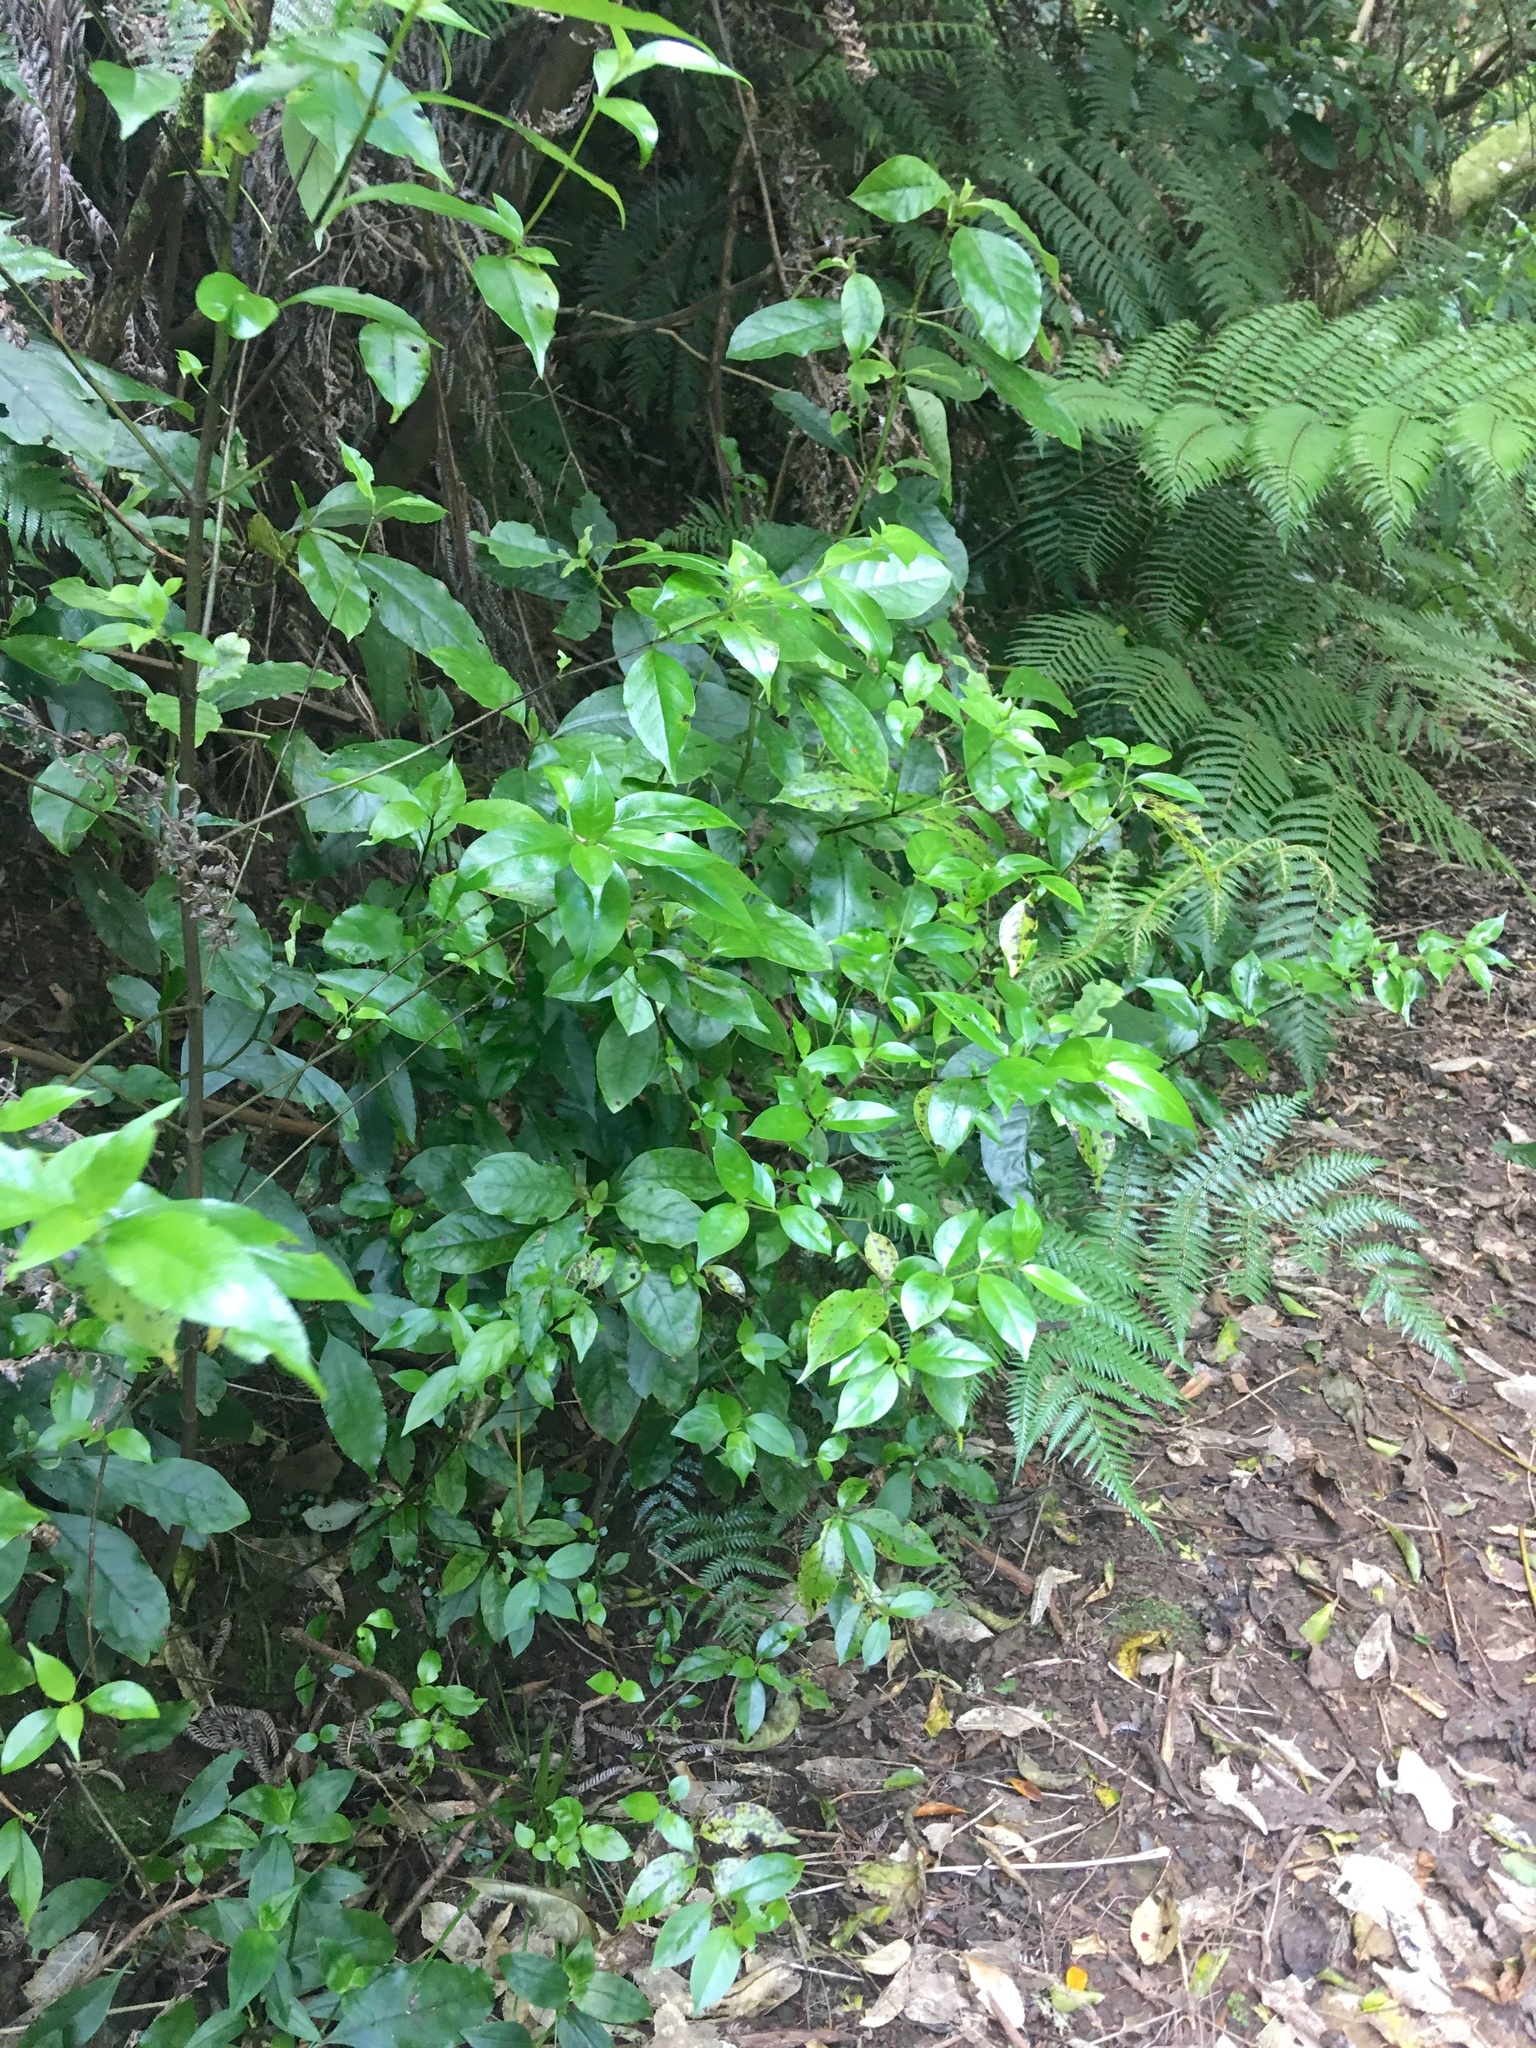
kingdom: Plantae
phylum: Tracheophyta
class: Magnoliopsida
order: Gentianales
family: Loganiaceae
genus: Geniostoma
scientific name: Geniostoma ligustrifolium
